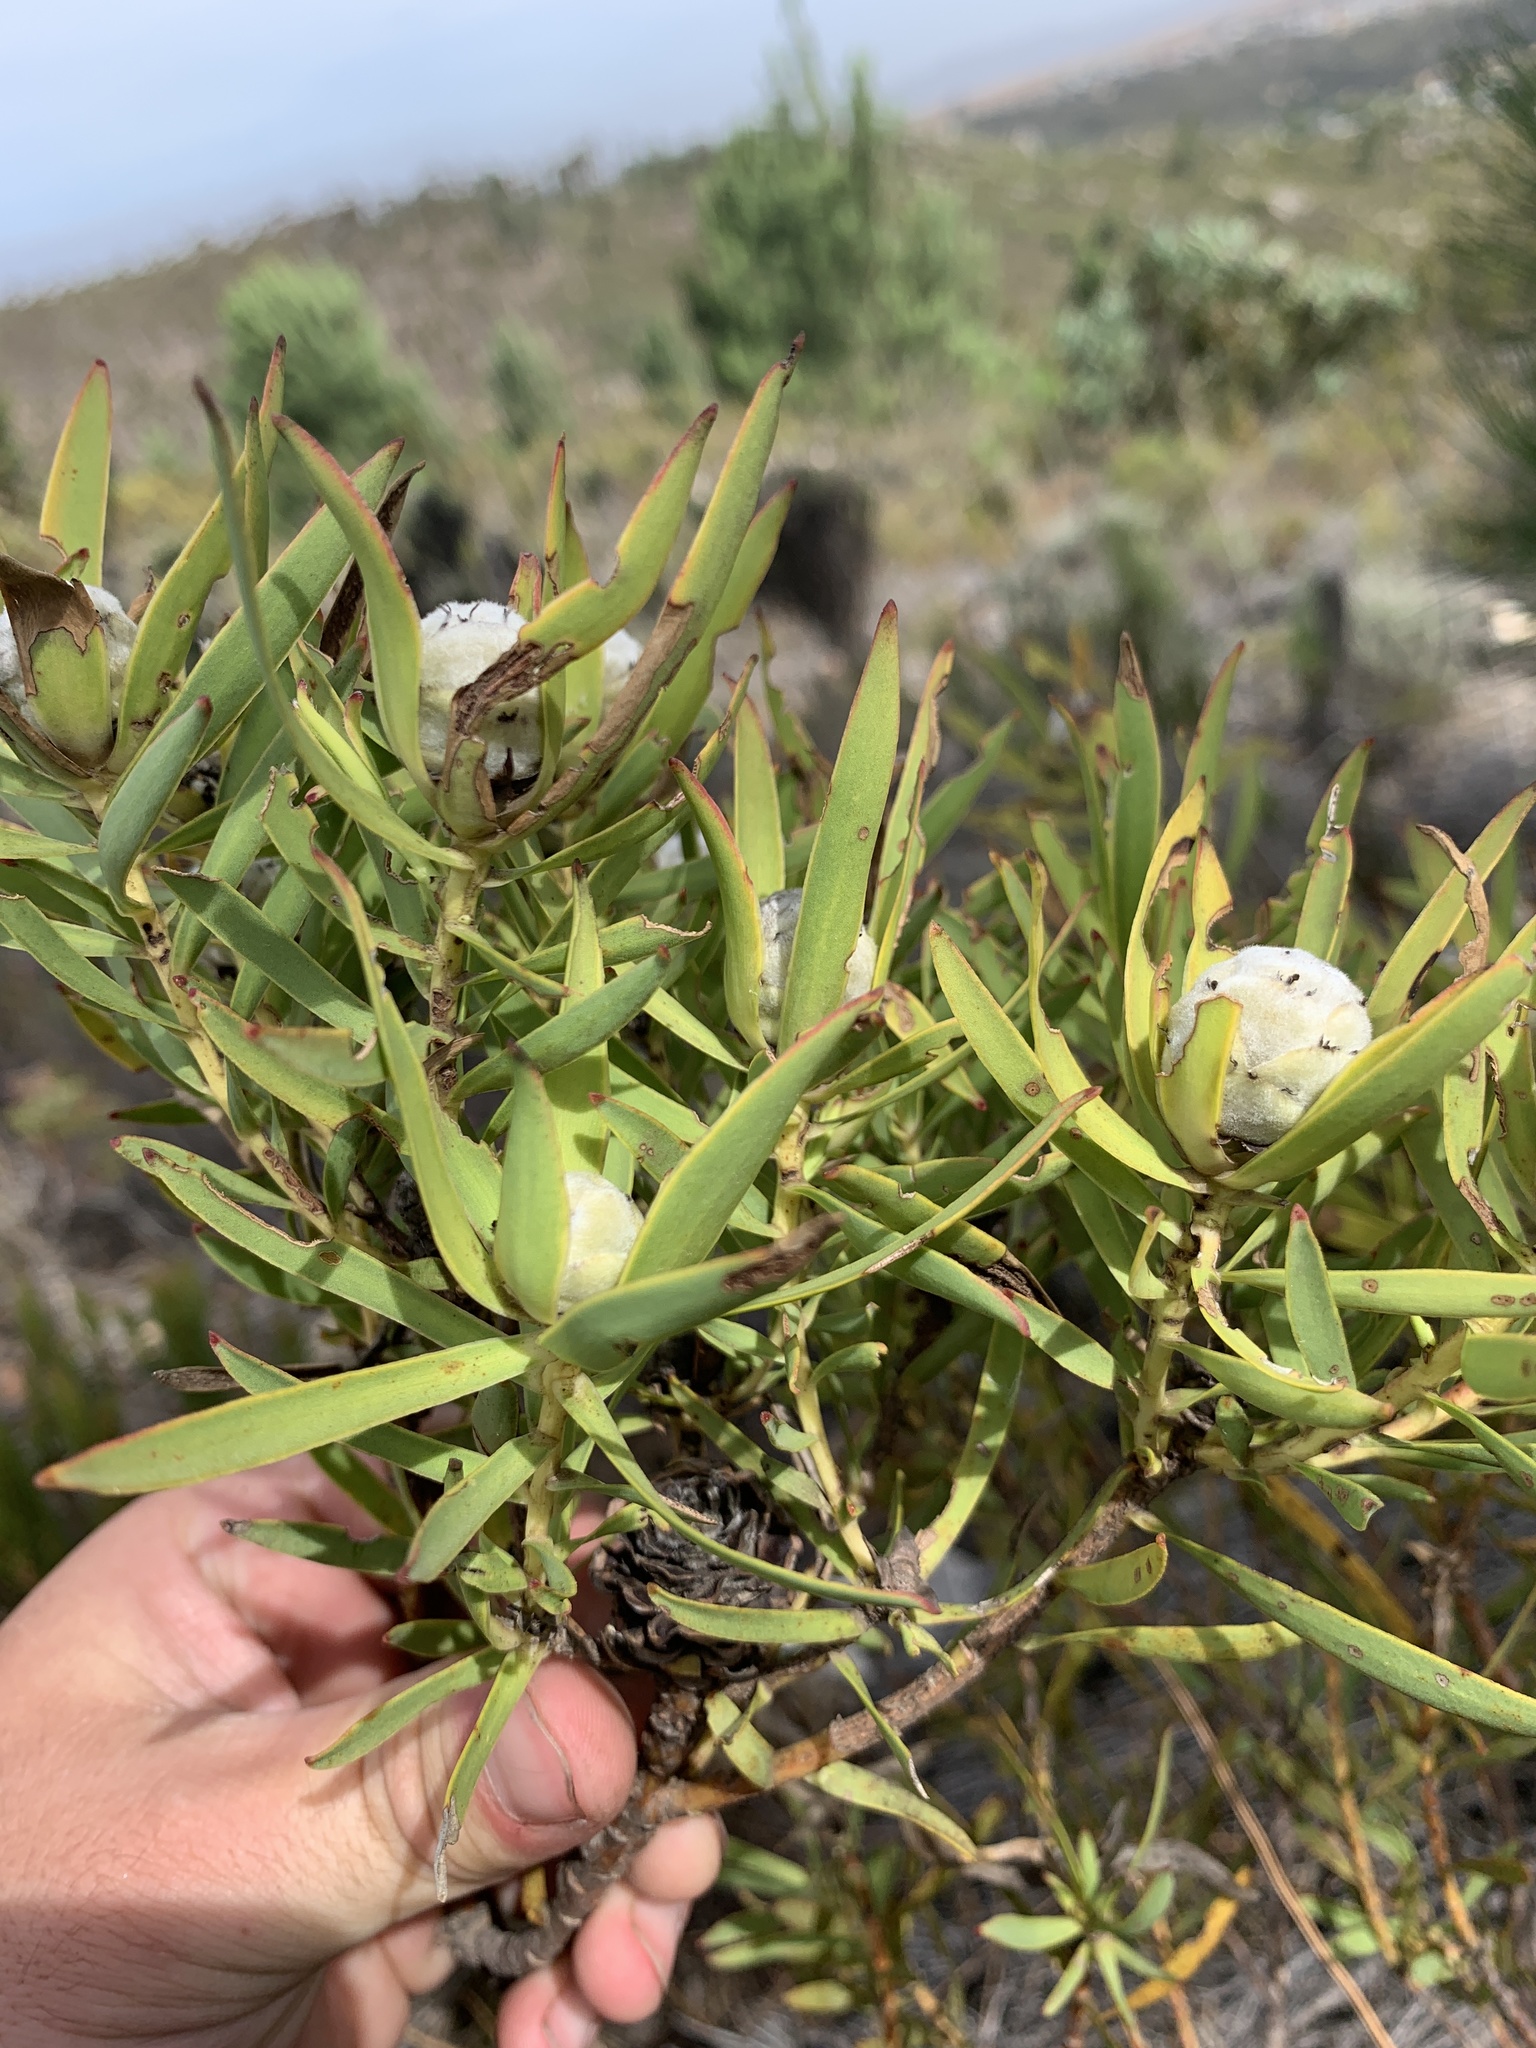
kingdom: Plantae
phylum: Tracheophyta
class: Magnoliopsida
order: Proteales
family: Proteaceae
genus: Leucadendron
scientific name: Leucadendron salignum
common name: Common sunshine conebush
